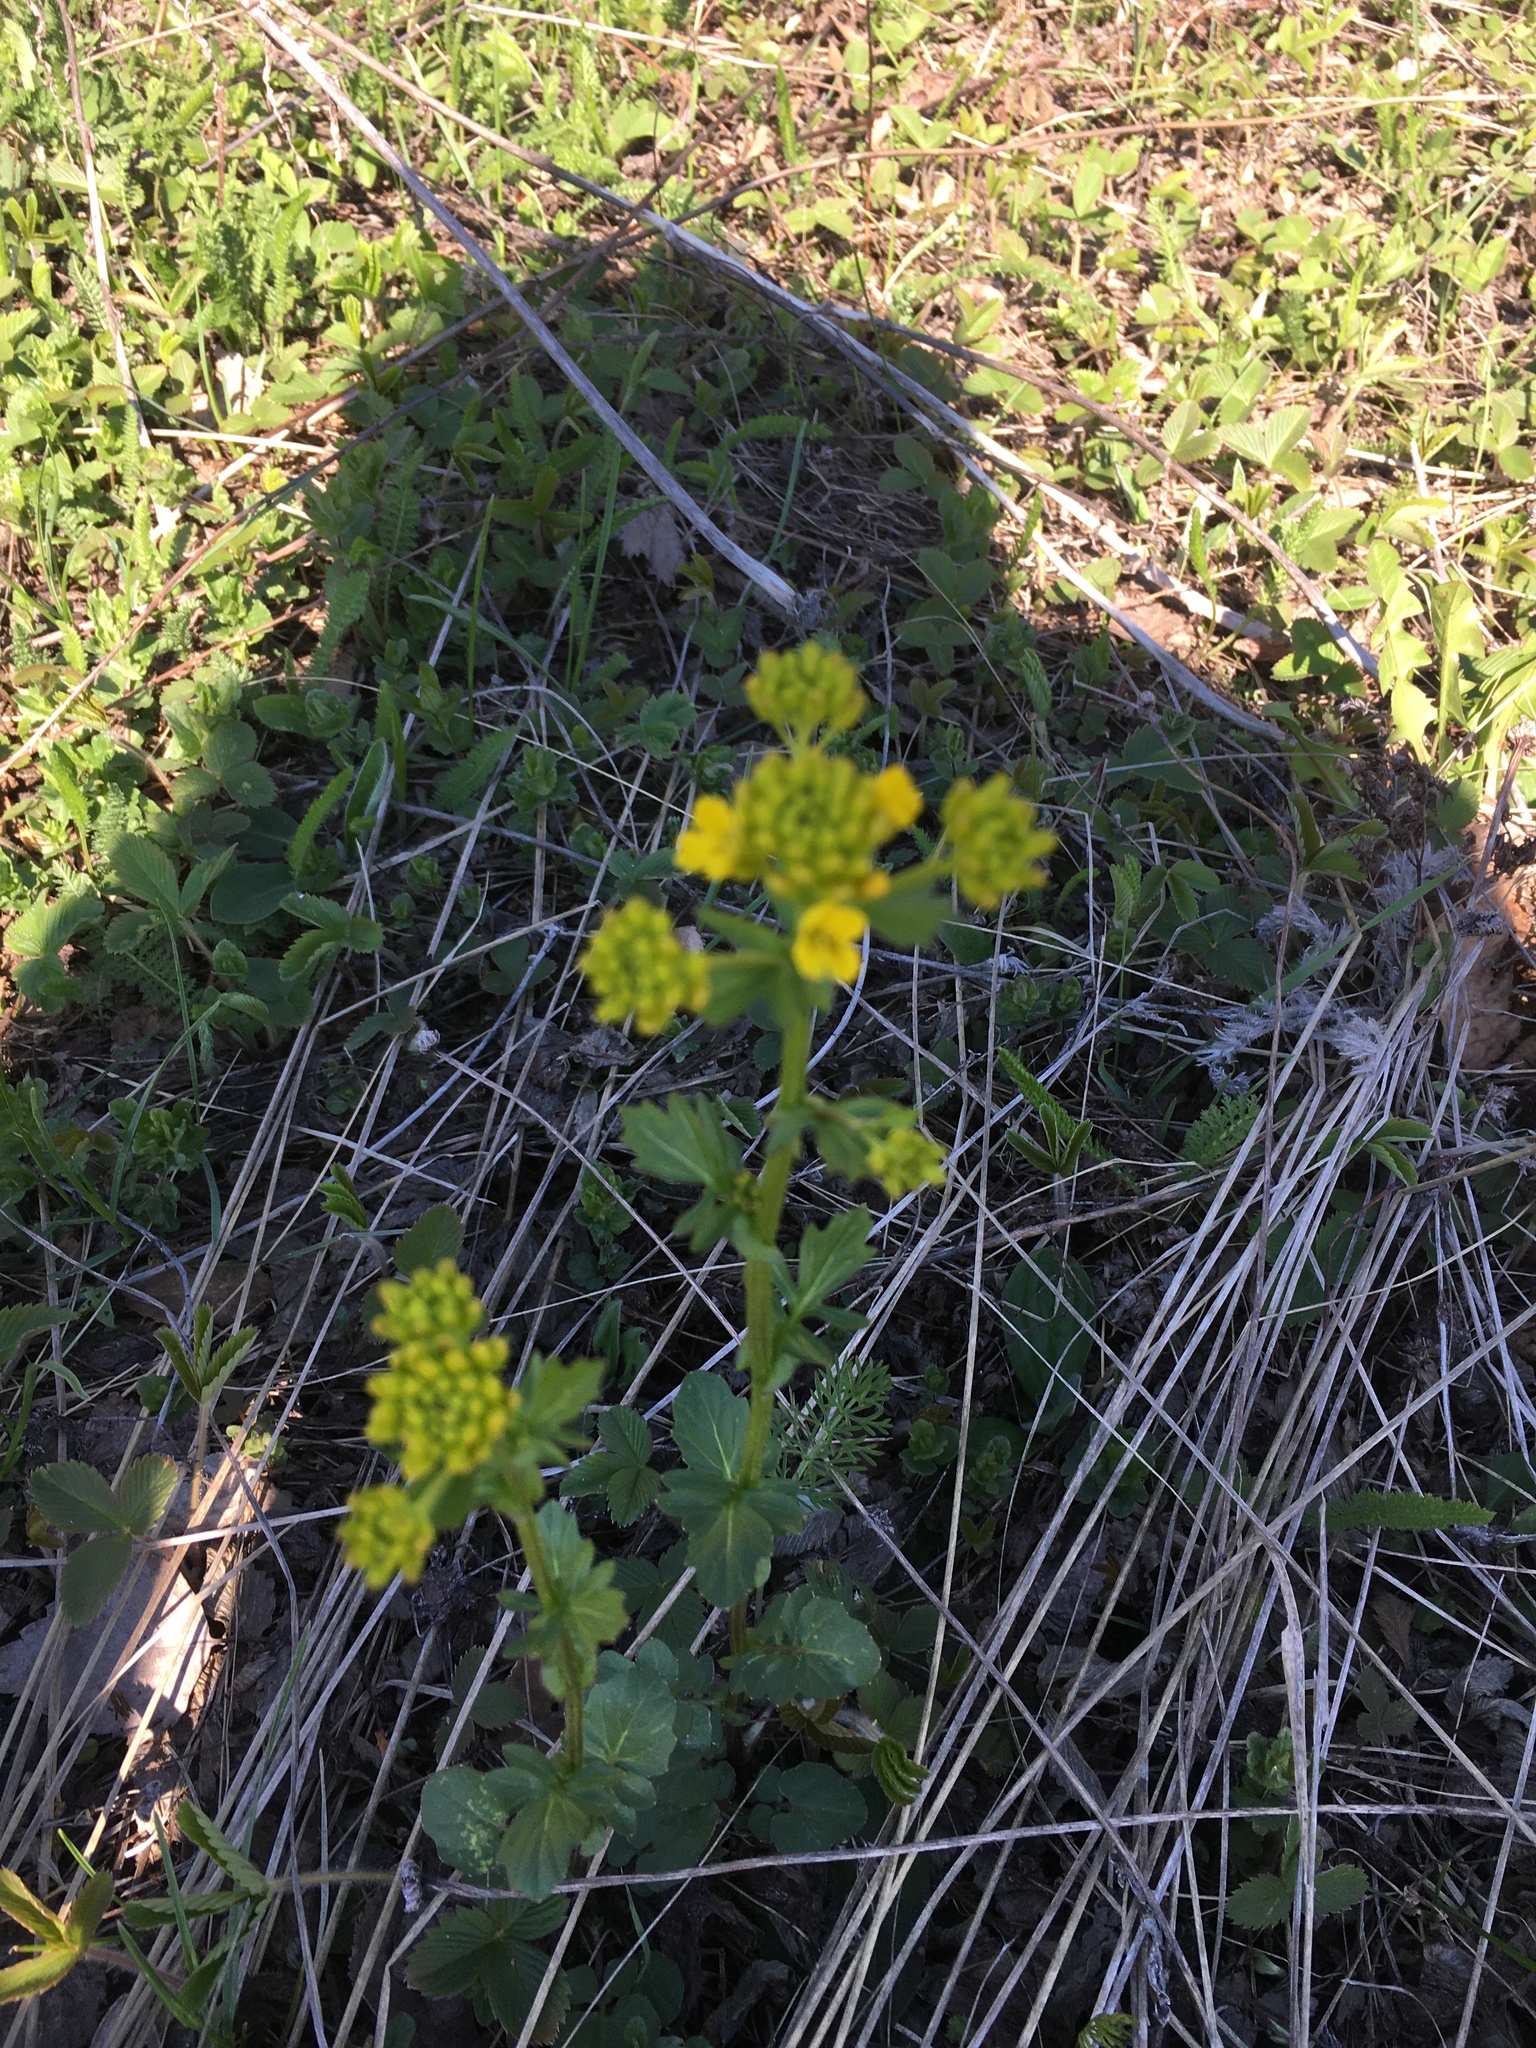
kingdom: Plantae
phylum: Tracheophyta
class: Magnoliopsida
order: Brassicales
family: Brassicaceae
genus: Barbarea
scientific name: Barbarea vulgaris
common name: Cressy-greens
